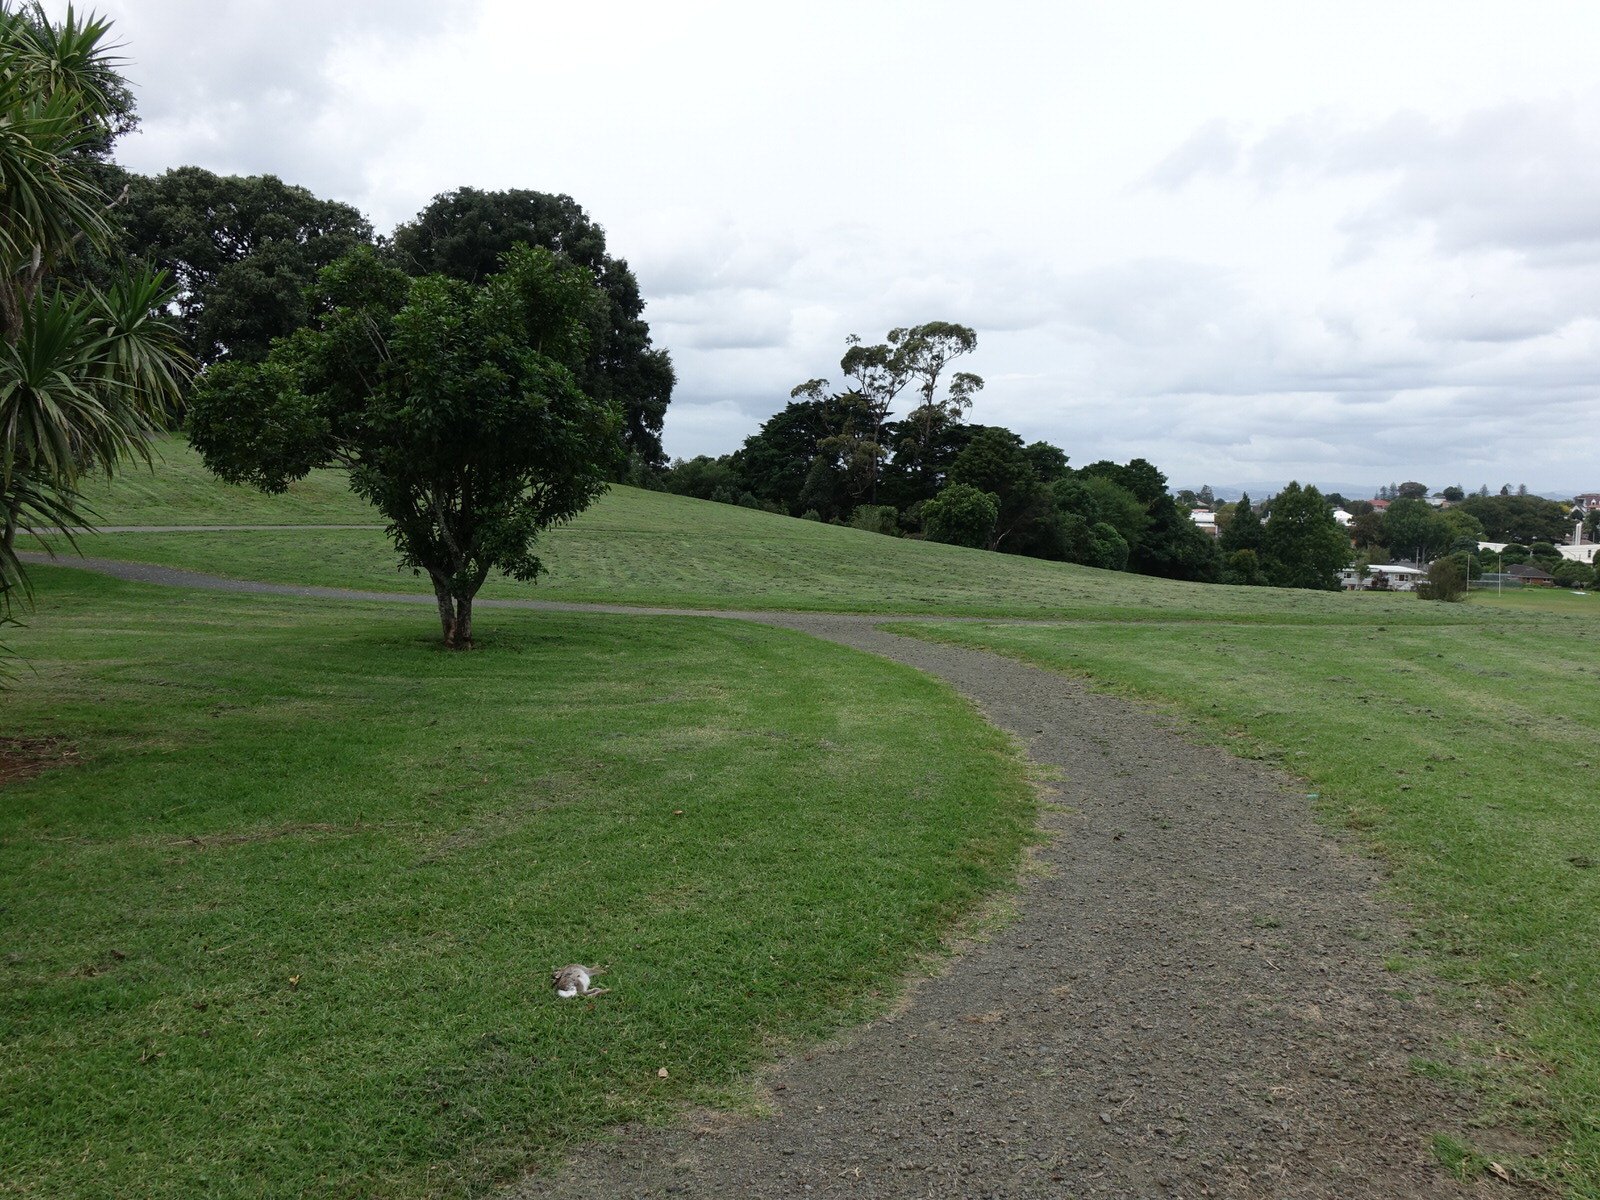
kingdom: Animalia
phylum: Chordata
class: Mammalia
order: Lagomorpha
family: Leporidae
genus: Oryctolagus
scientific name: Oryctolagus cuniculus
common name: European rabbit
